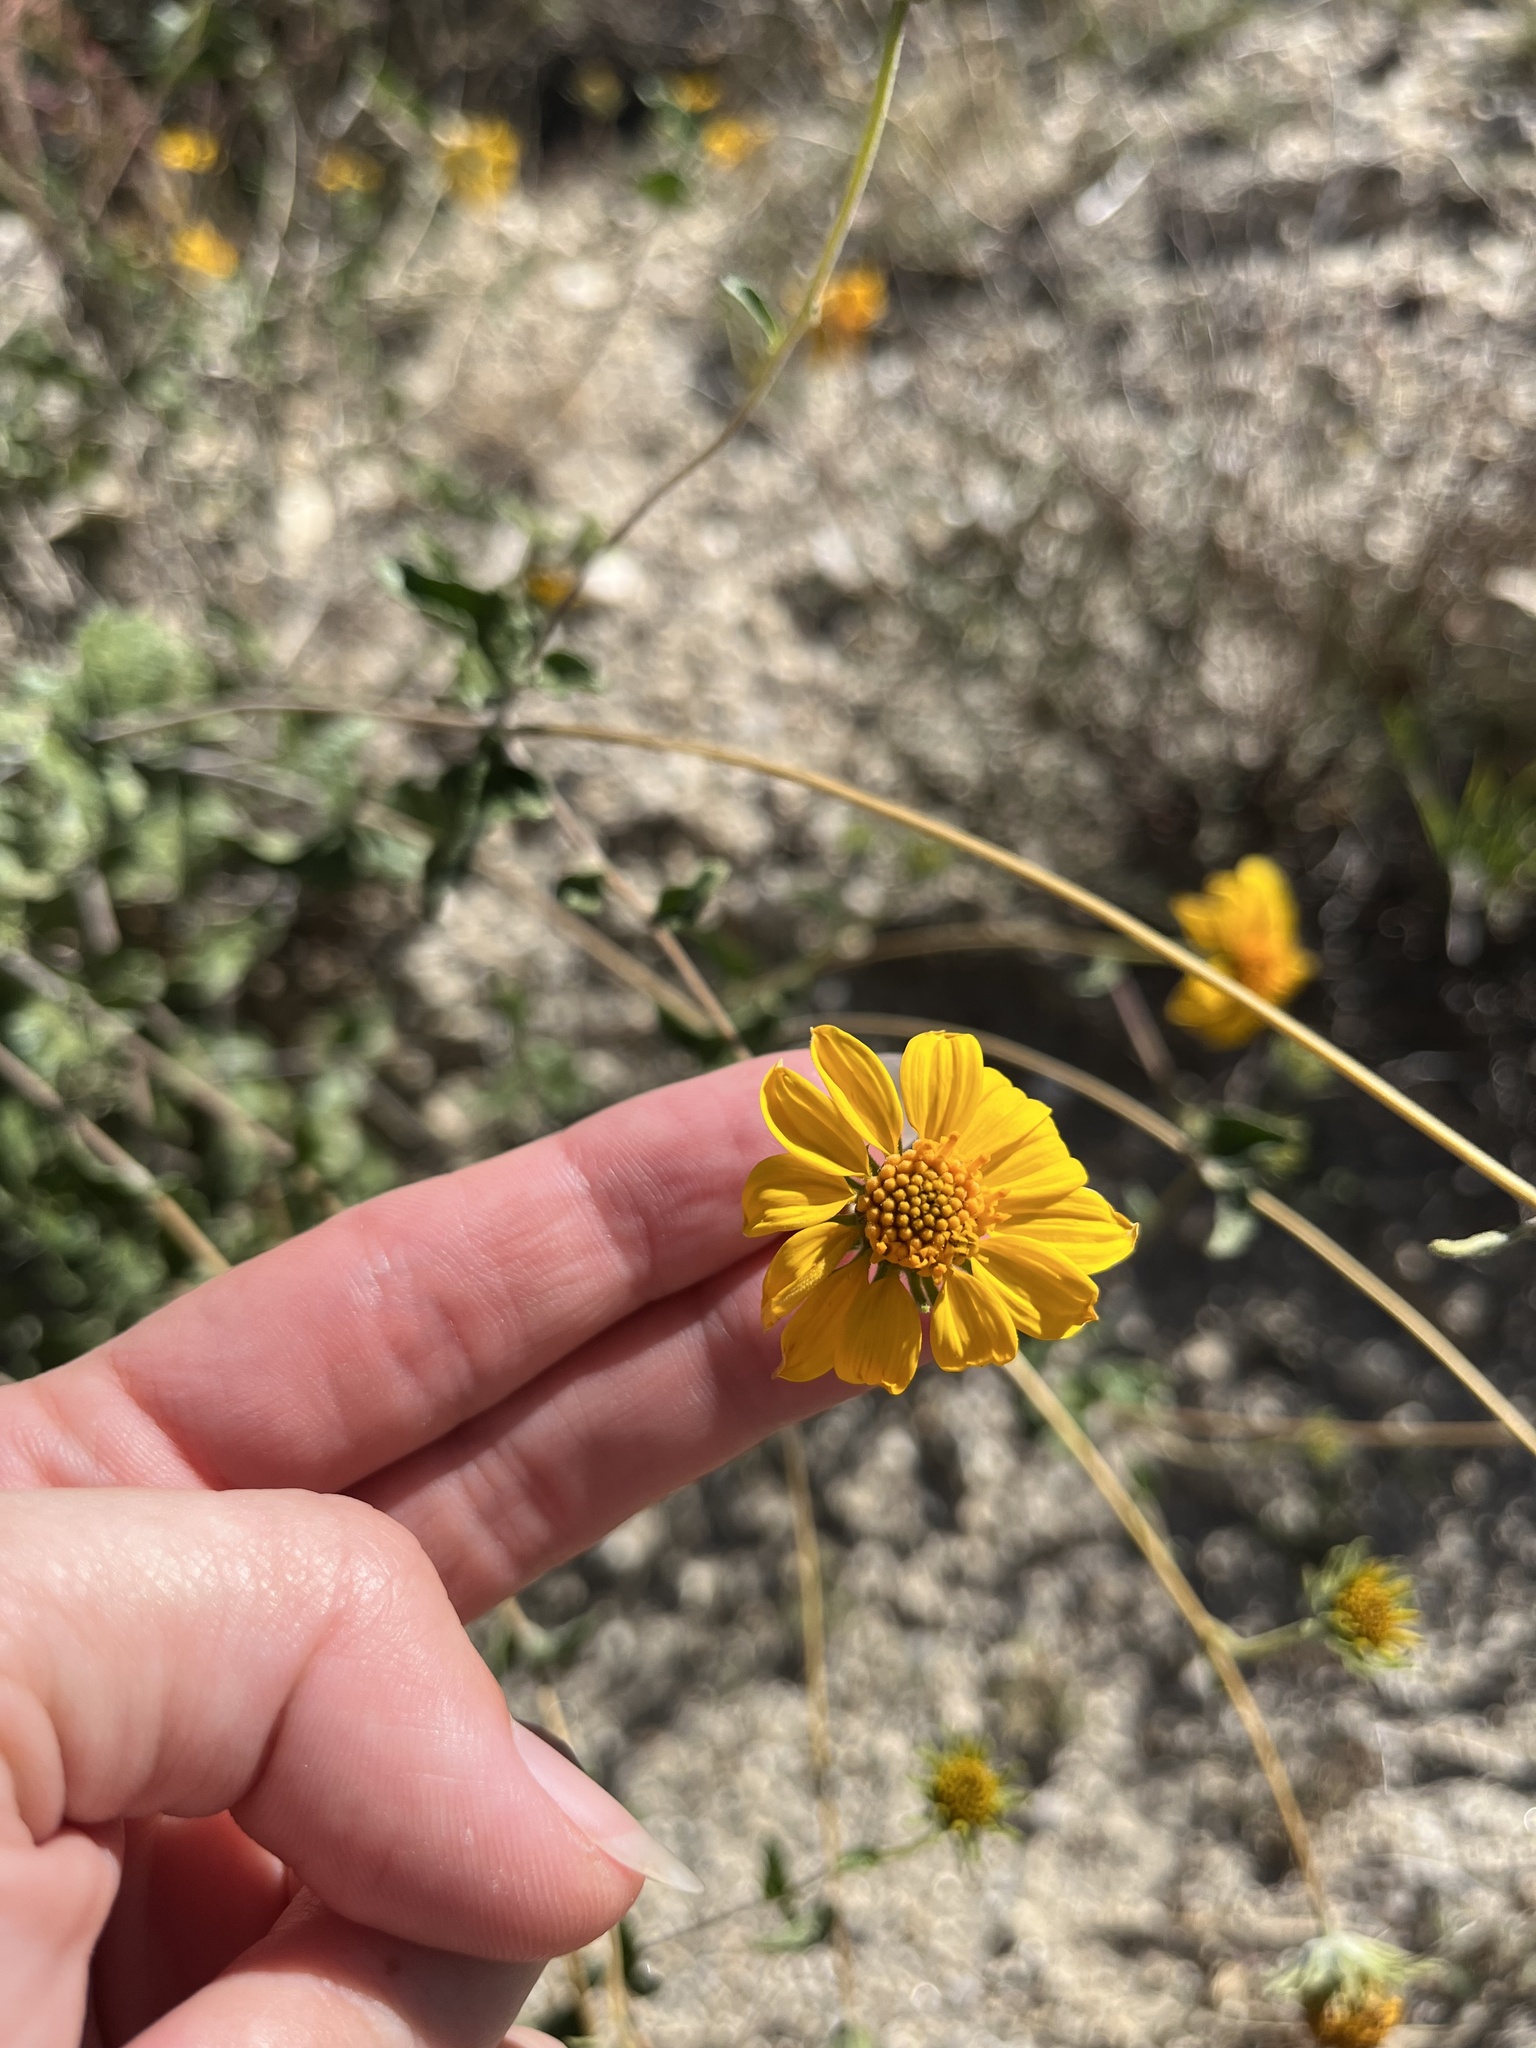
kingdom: Plantae
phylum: Tracheophyta
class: Magnoliopsida
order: Asterales
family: Asteraceae
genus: Bahiopsis
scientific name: Bahiopsis parishii
